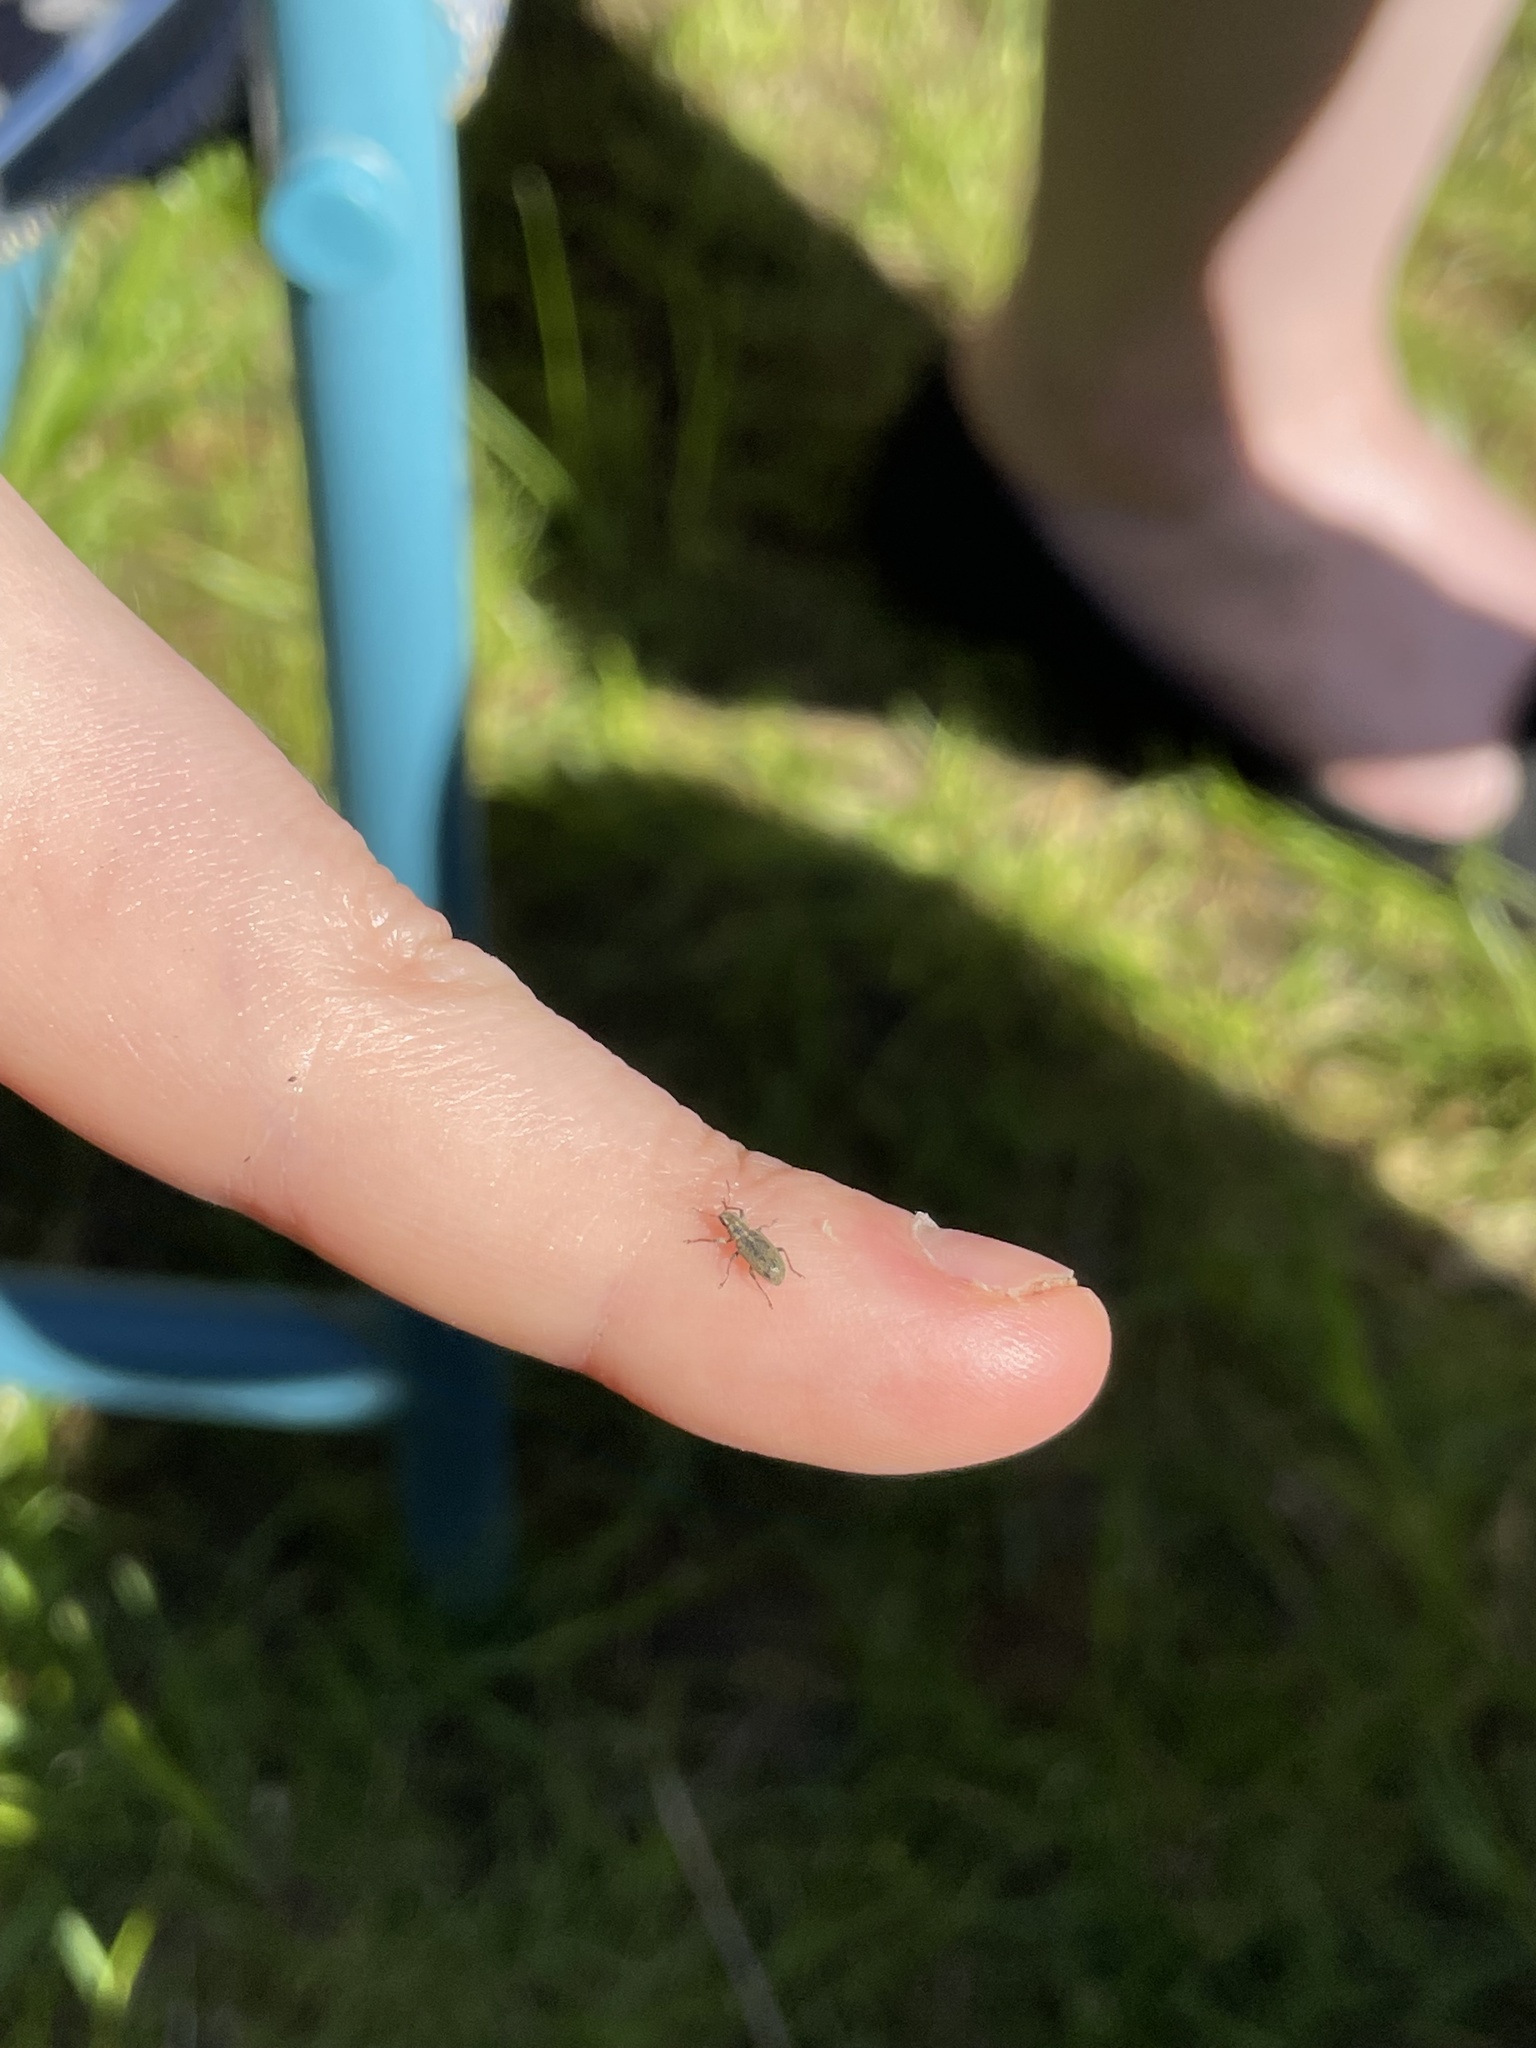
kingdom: Animalia
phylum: Arthropoda
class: Insecta
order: Coleoptera
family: Curculionidae
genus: Sitona
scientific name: Sitona lineatus
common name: Weevil
